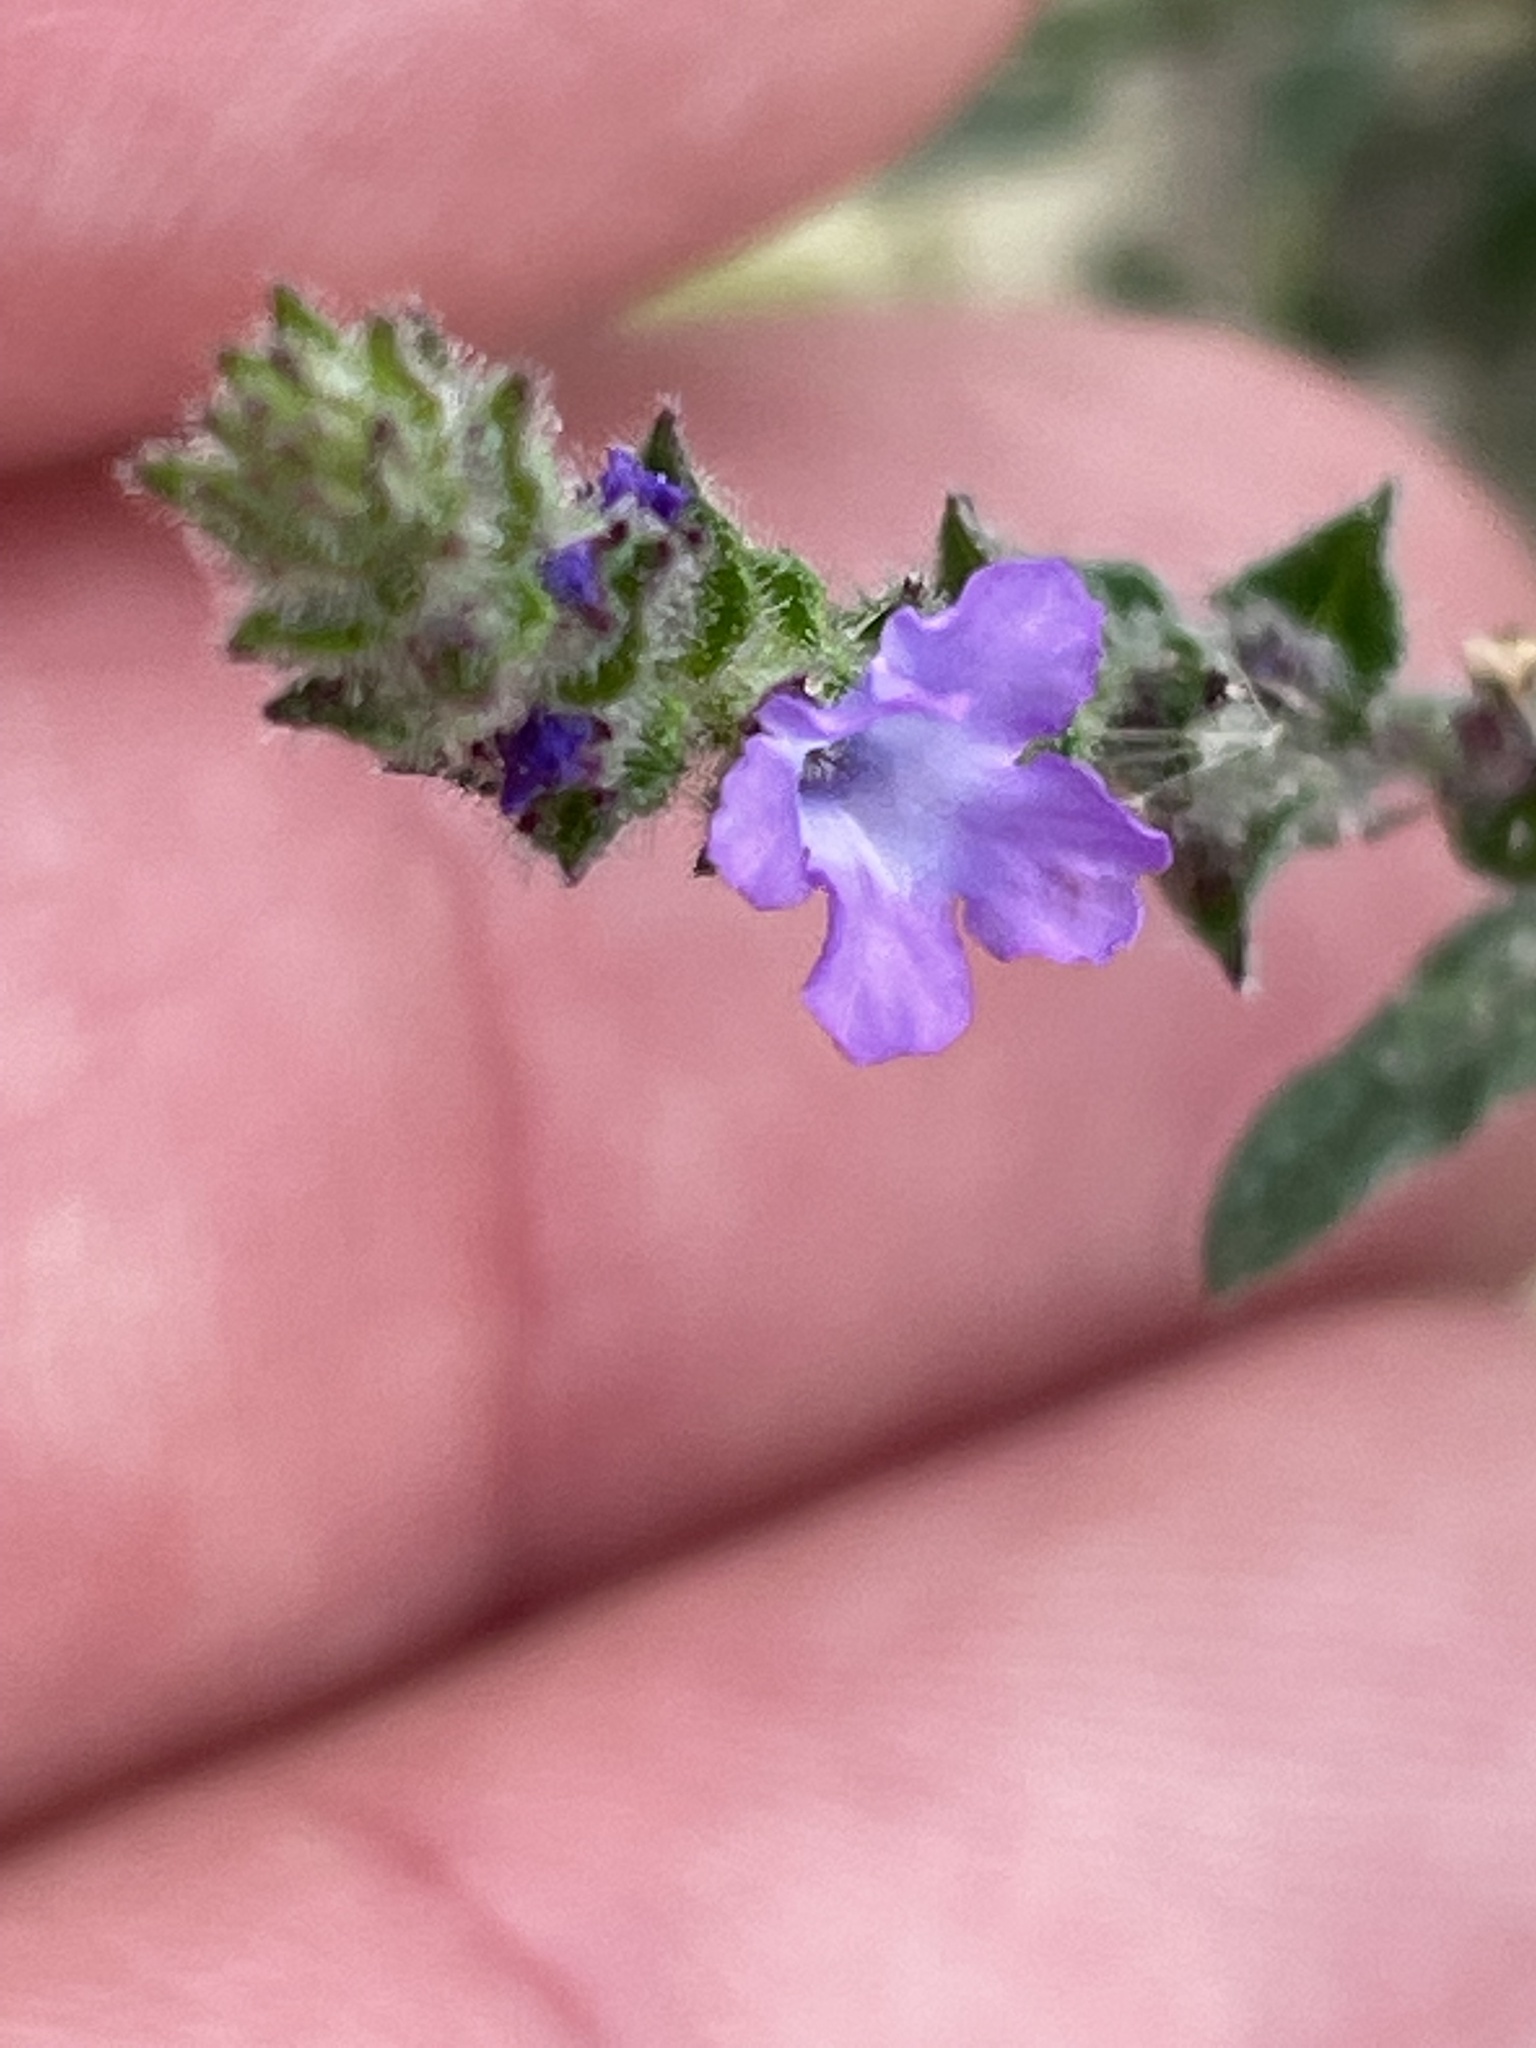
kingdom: Plantae
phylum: Tracheophyta
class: Magnoliopsida
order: Lamiales
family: Verbenaceae
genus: Verbena
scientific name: Verbena canescens
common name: Gray vervain
